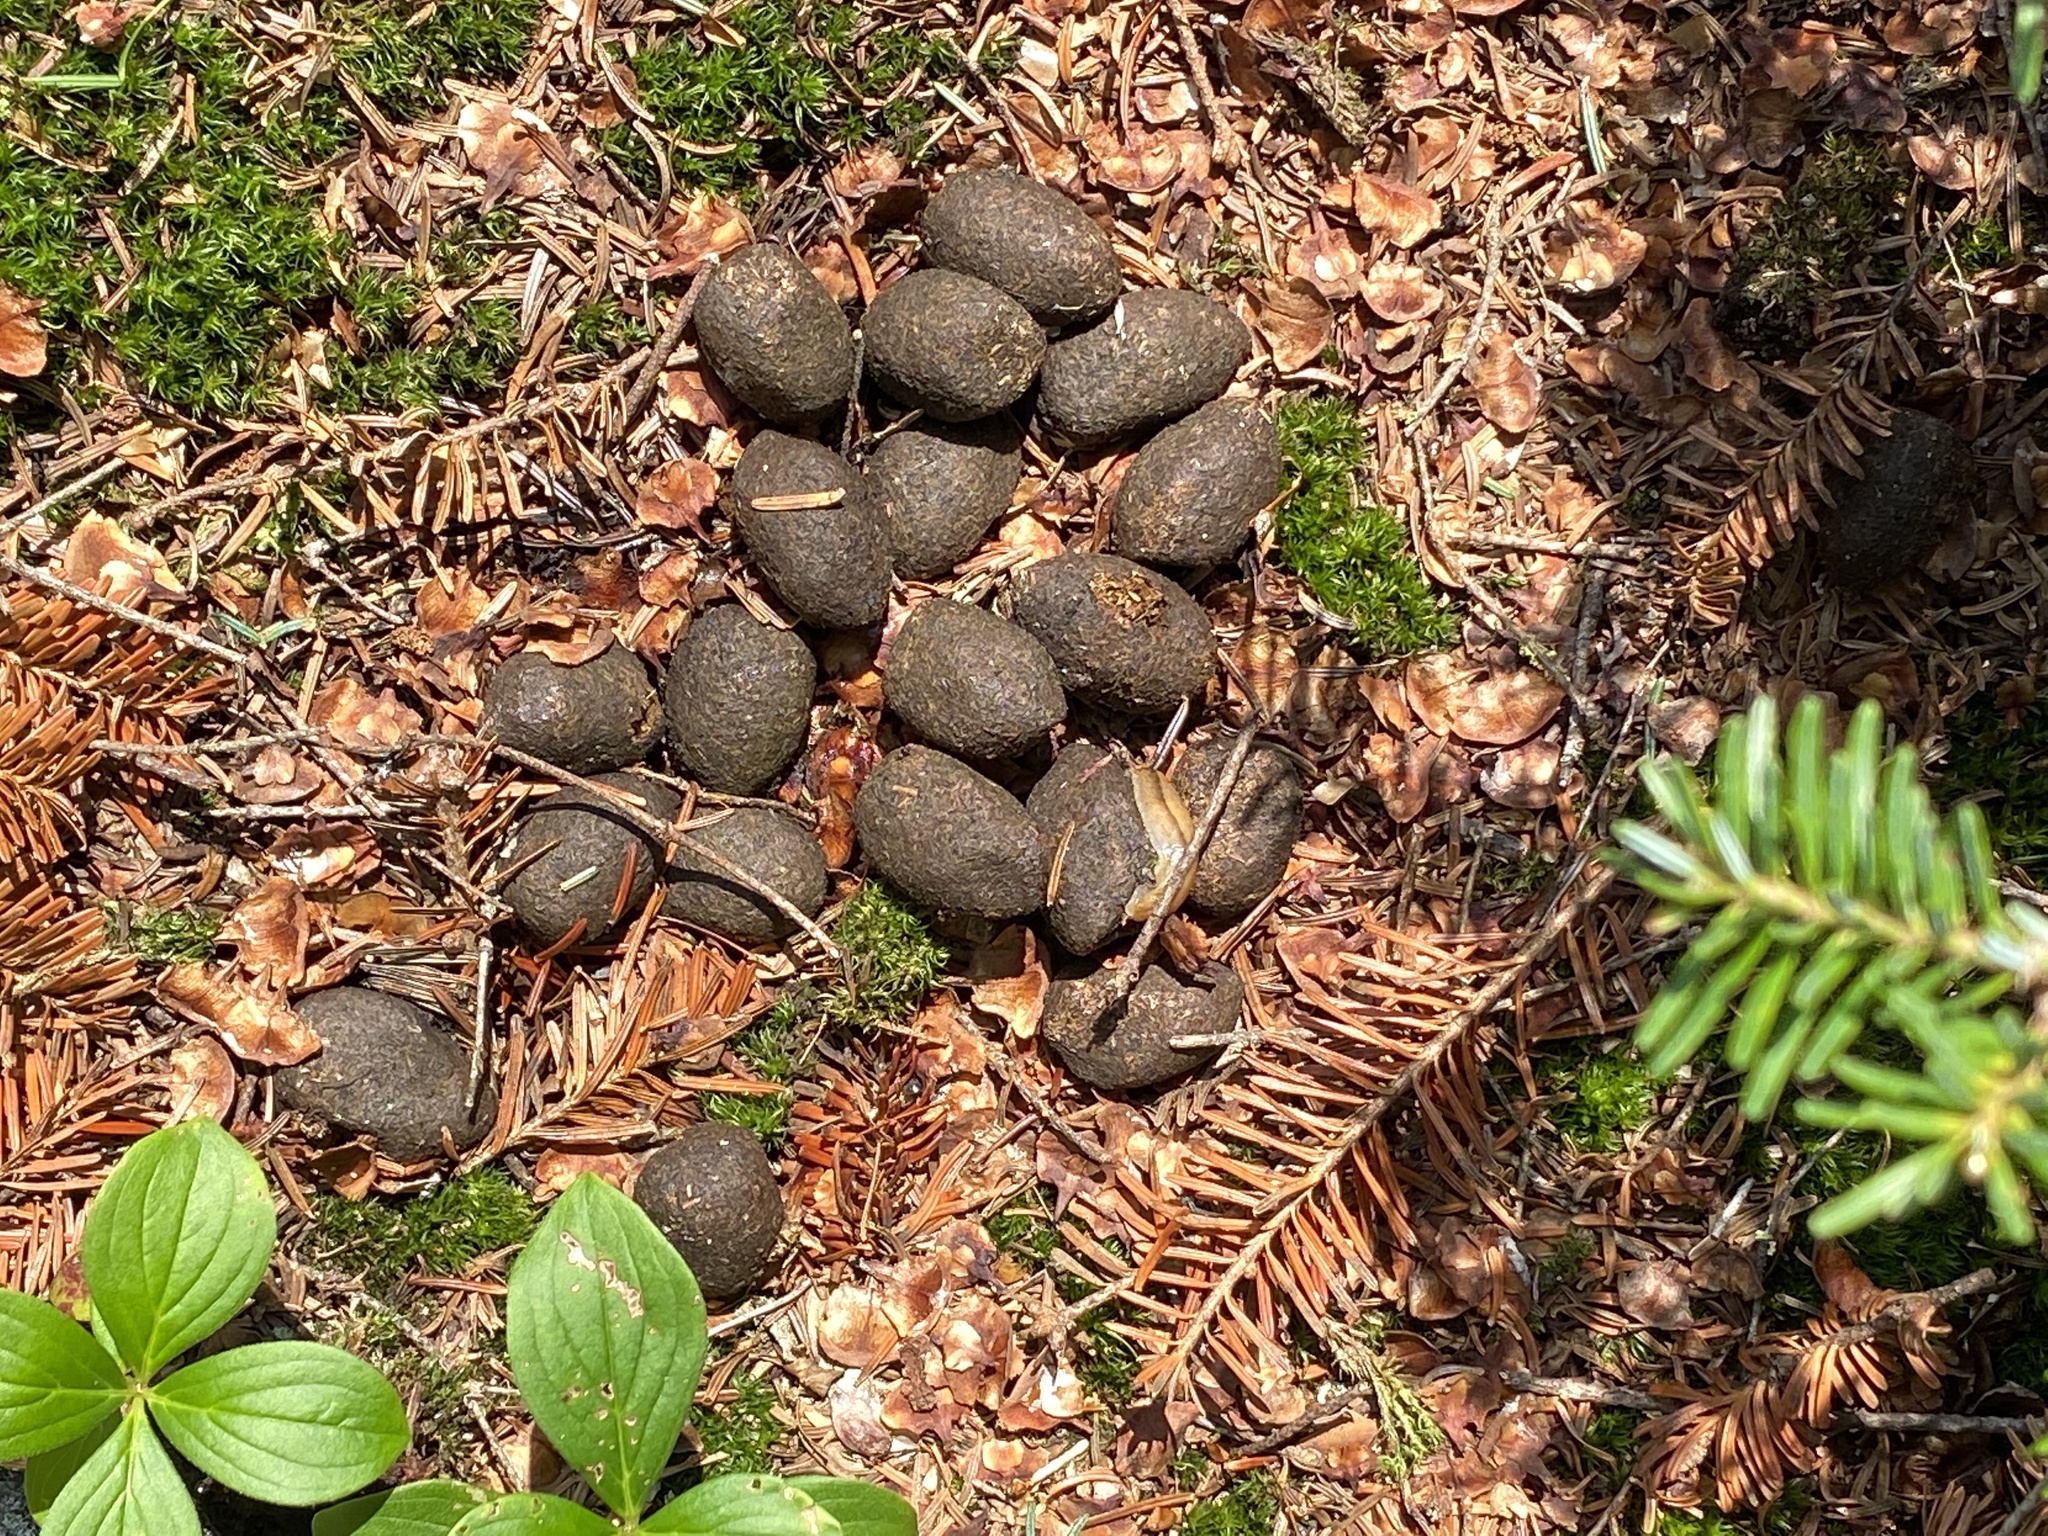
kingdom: Animalia
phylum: Chordata
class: Mammalia
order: Artiodactyla
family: Cervidae
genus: Alces
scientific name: Alces alces
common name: Moose
